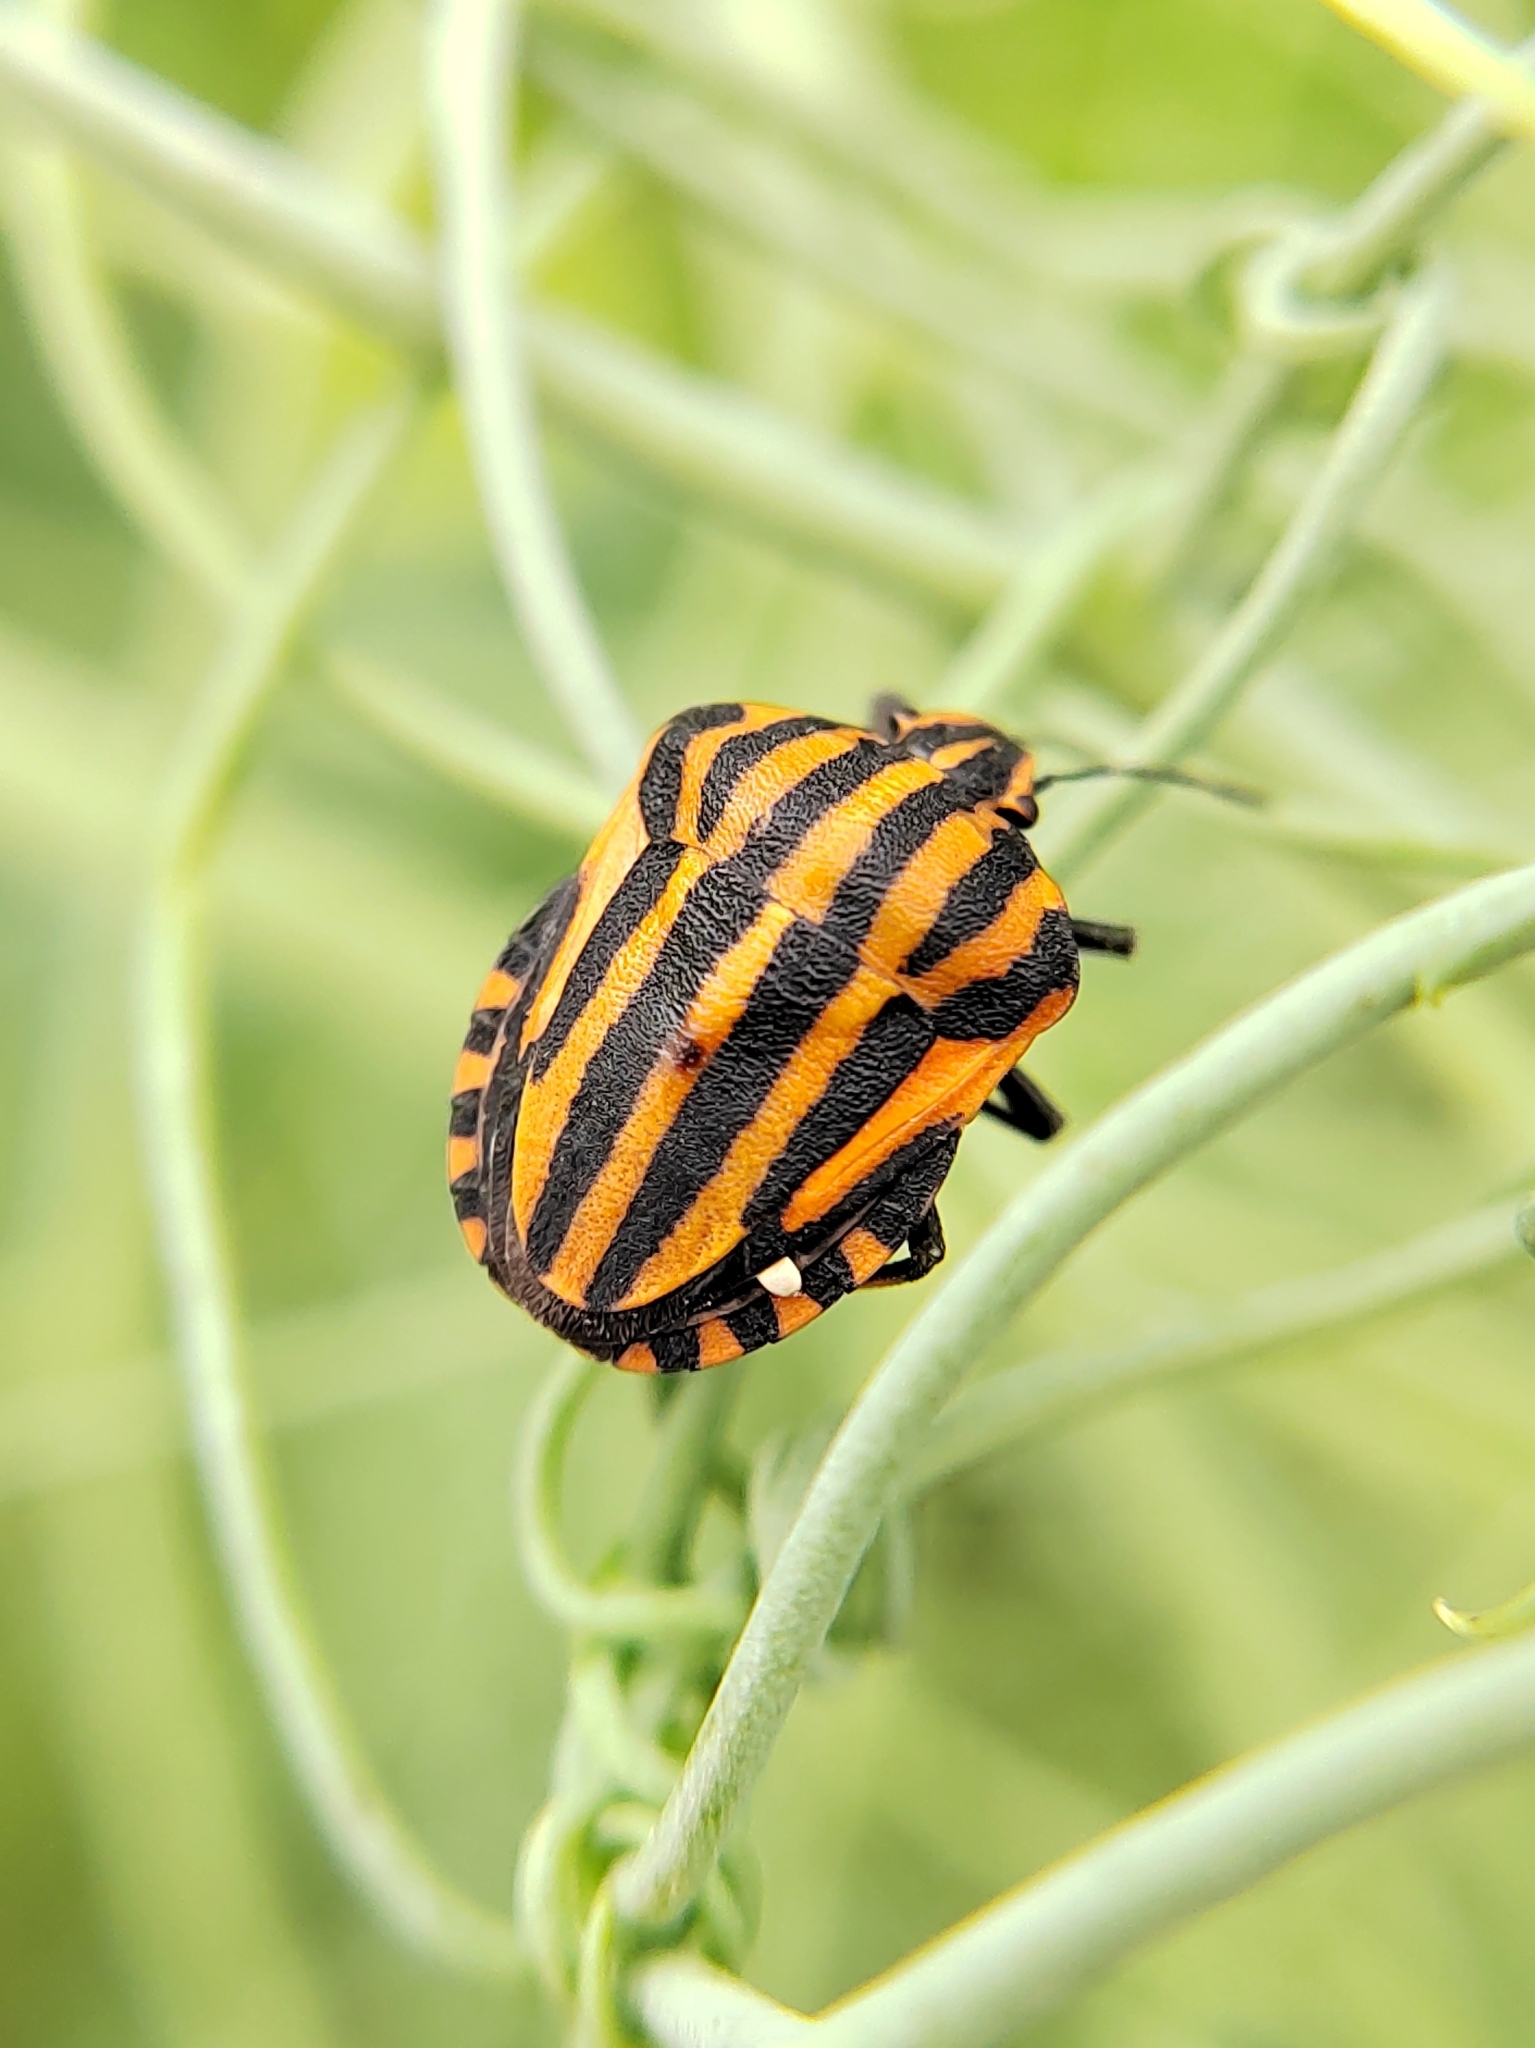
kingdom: Animalia
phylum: Arthropoda
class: Insecta
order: Hemiptera
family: Pentatomidae
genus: Graphosoma
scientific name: Graphosoma italicum
